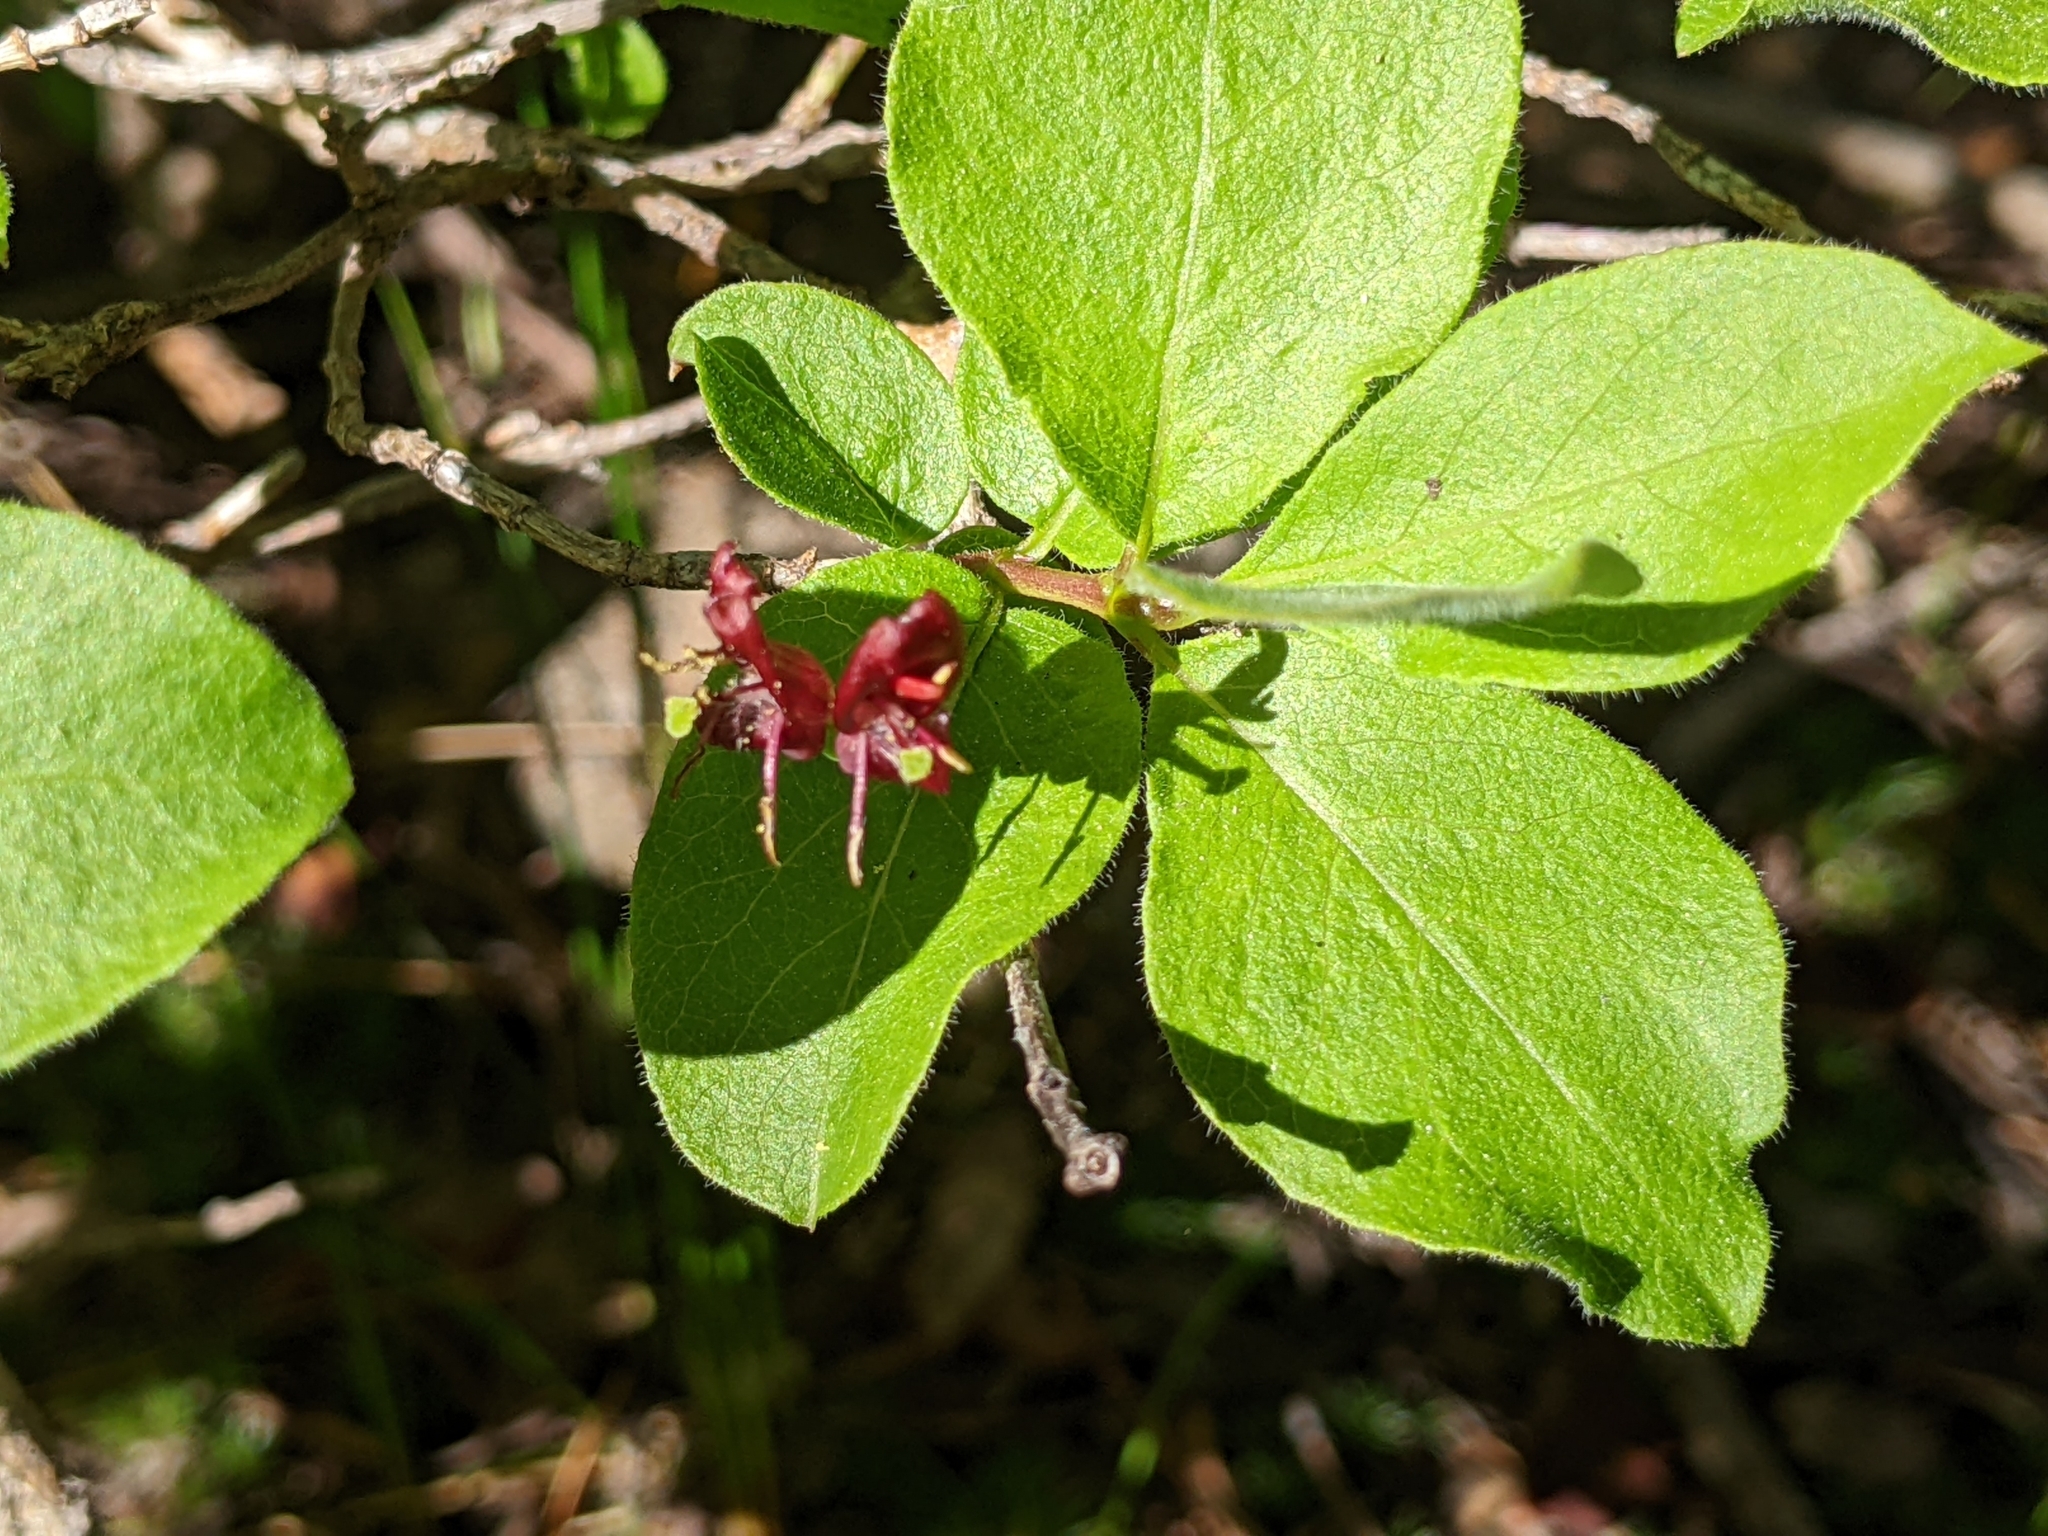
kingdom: Plantae
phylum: Tracheophyta
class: Magnoliopsida
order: Dipsacales
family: Caprifoliaceae
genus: Lonicera
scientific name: Lonicera conjugialis
